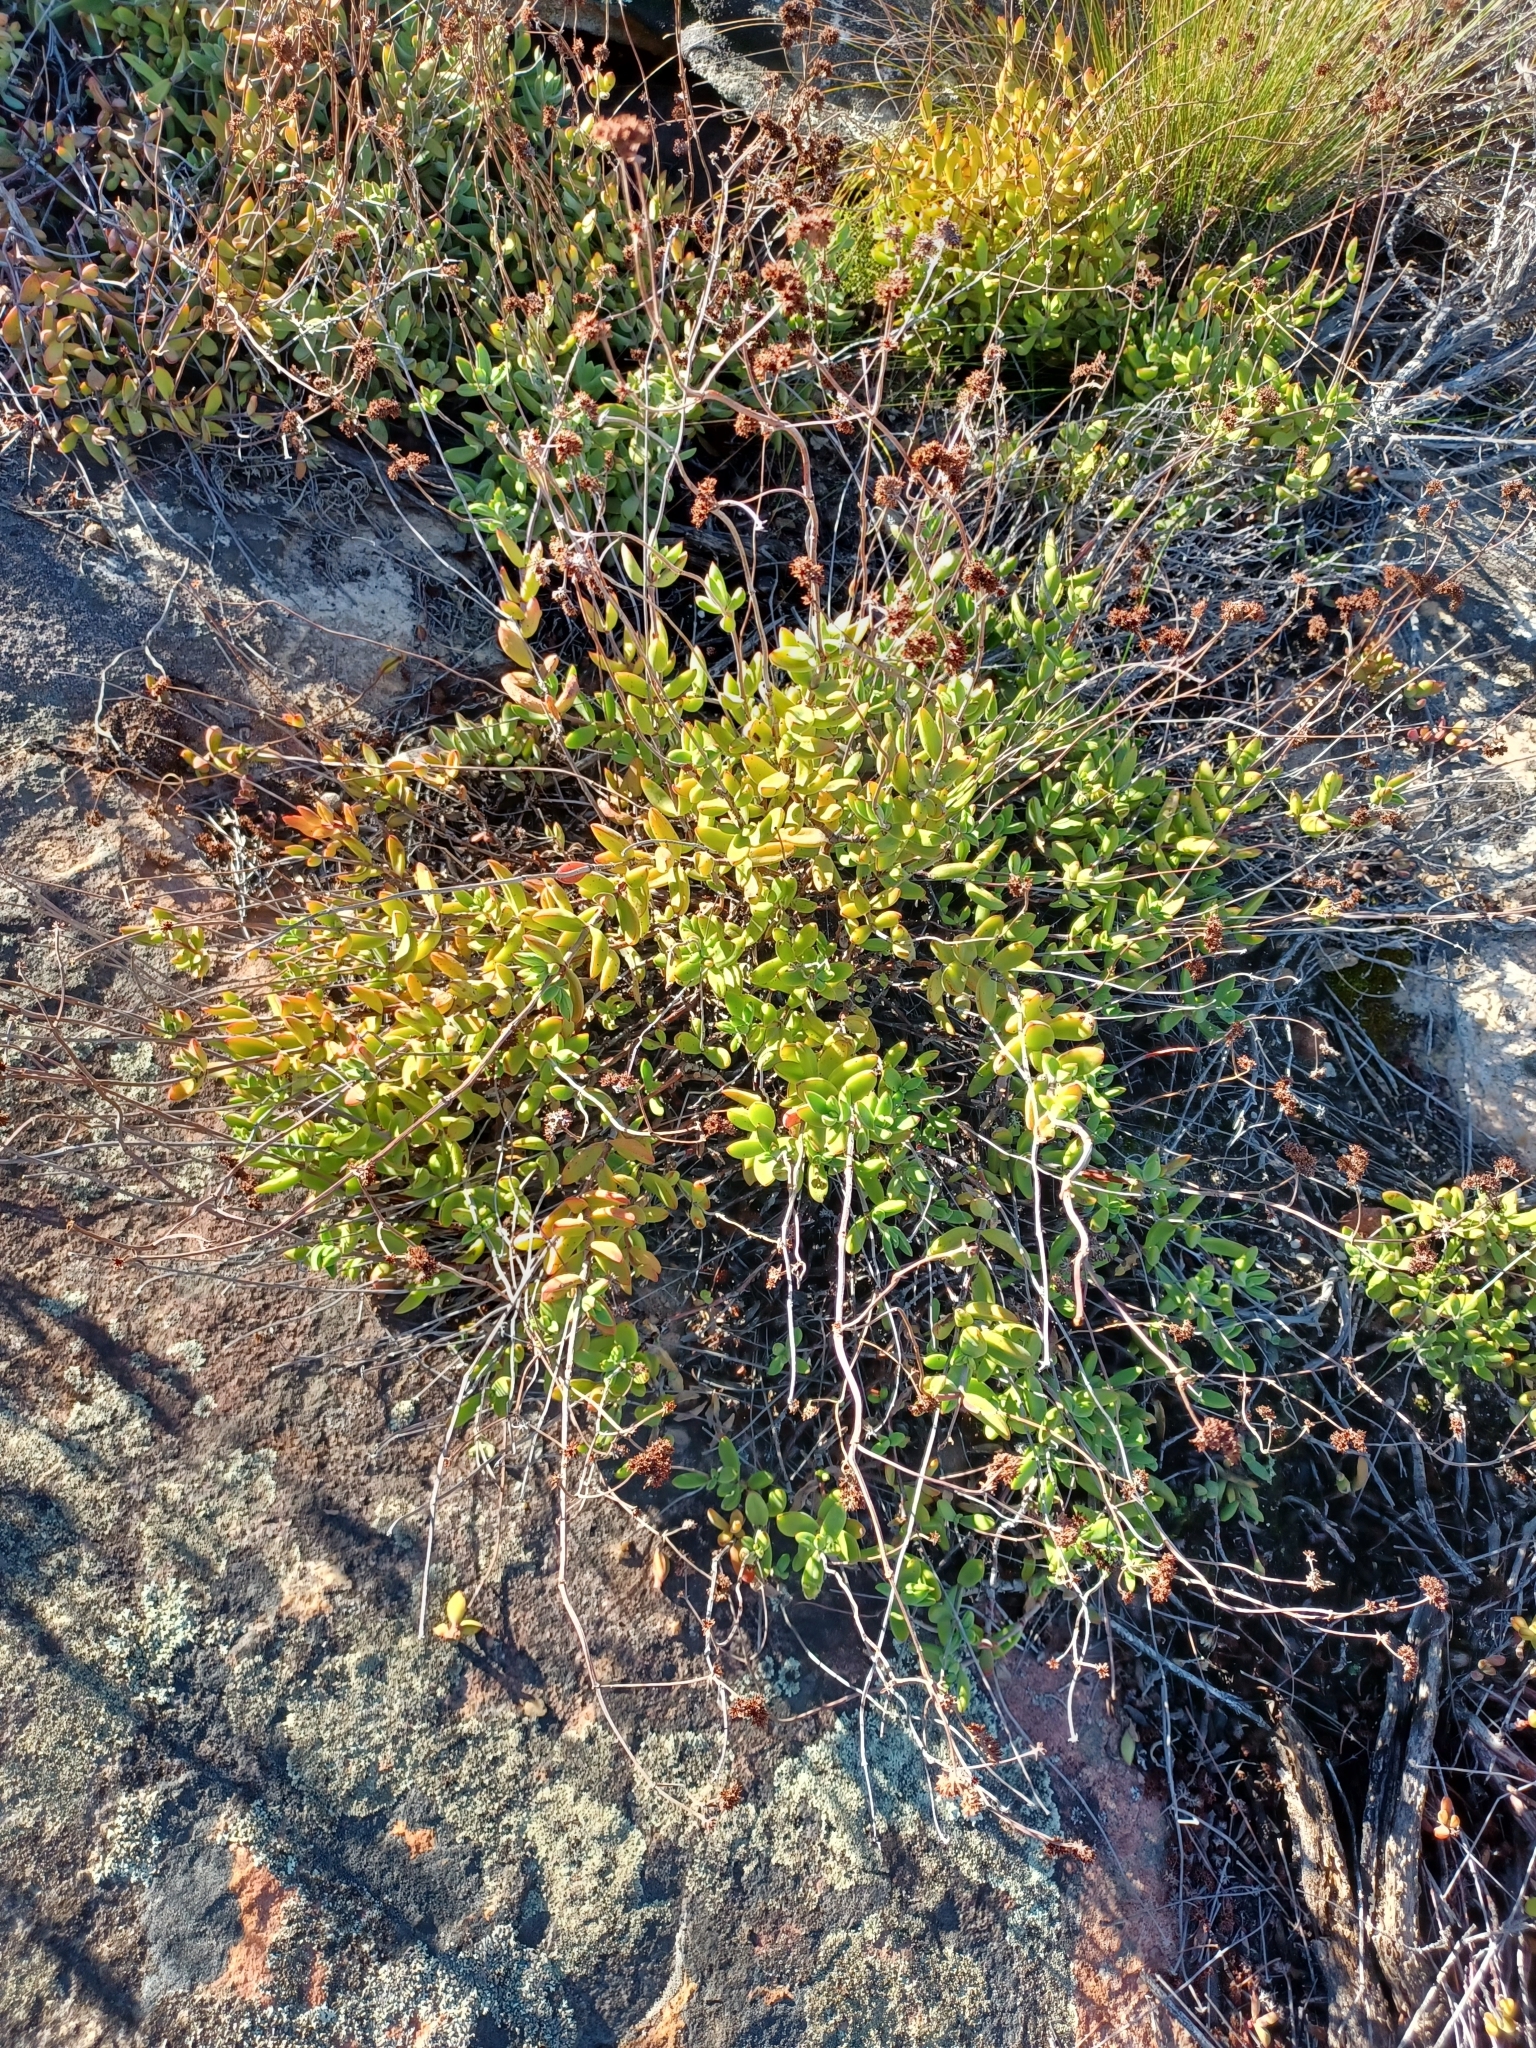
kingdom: Plantae
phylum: Tracheophyta
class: Magnoliopsida
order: Saxifragales
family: Crassulaceae
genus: Crassula
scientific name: Crassula atropurpurea
